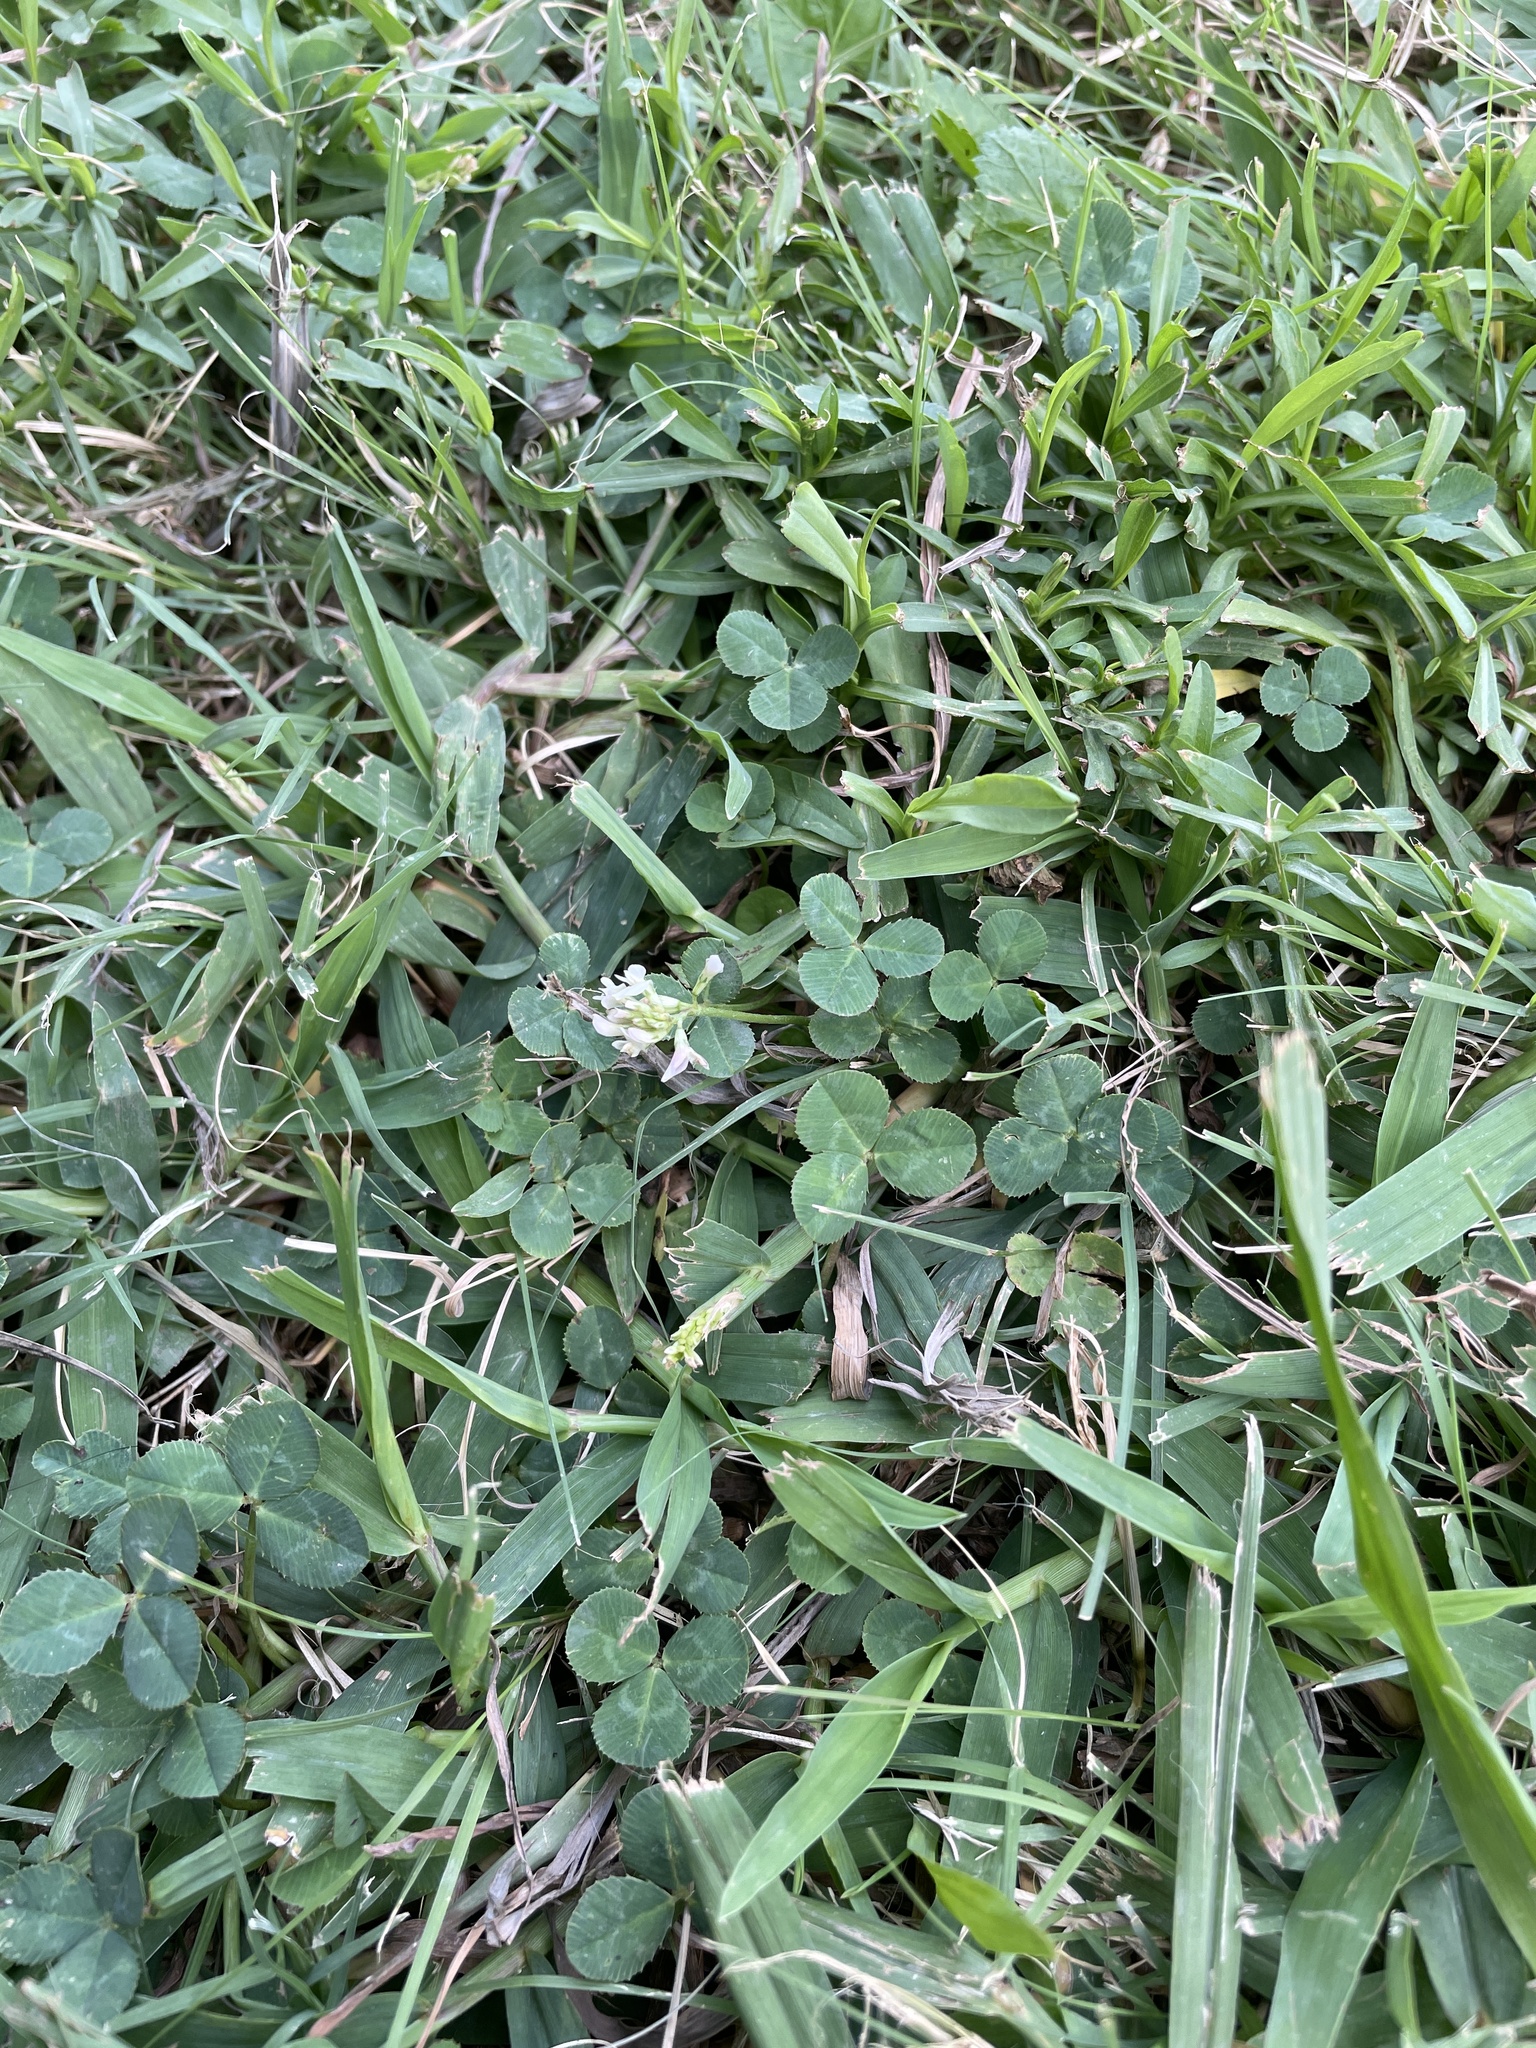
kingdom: Plantae
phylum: Tracheophyta
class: Magnoliopsida
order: Fabales
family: Fabaceae
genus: Trifolium
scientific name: Trifolium repens
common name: White clover
